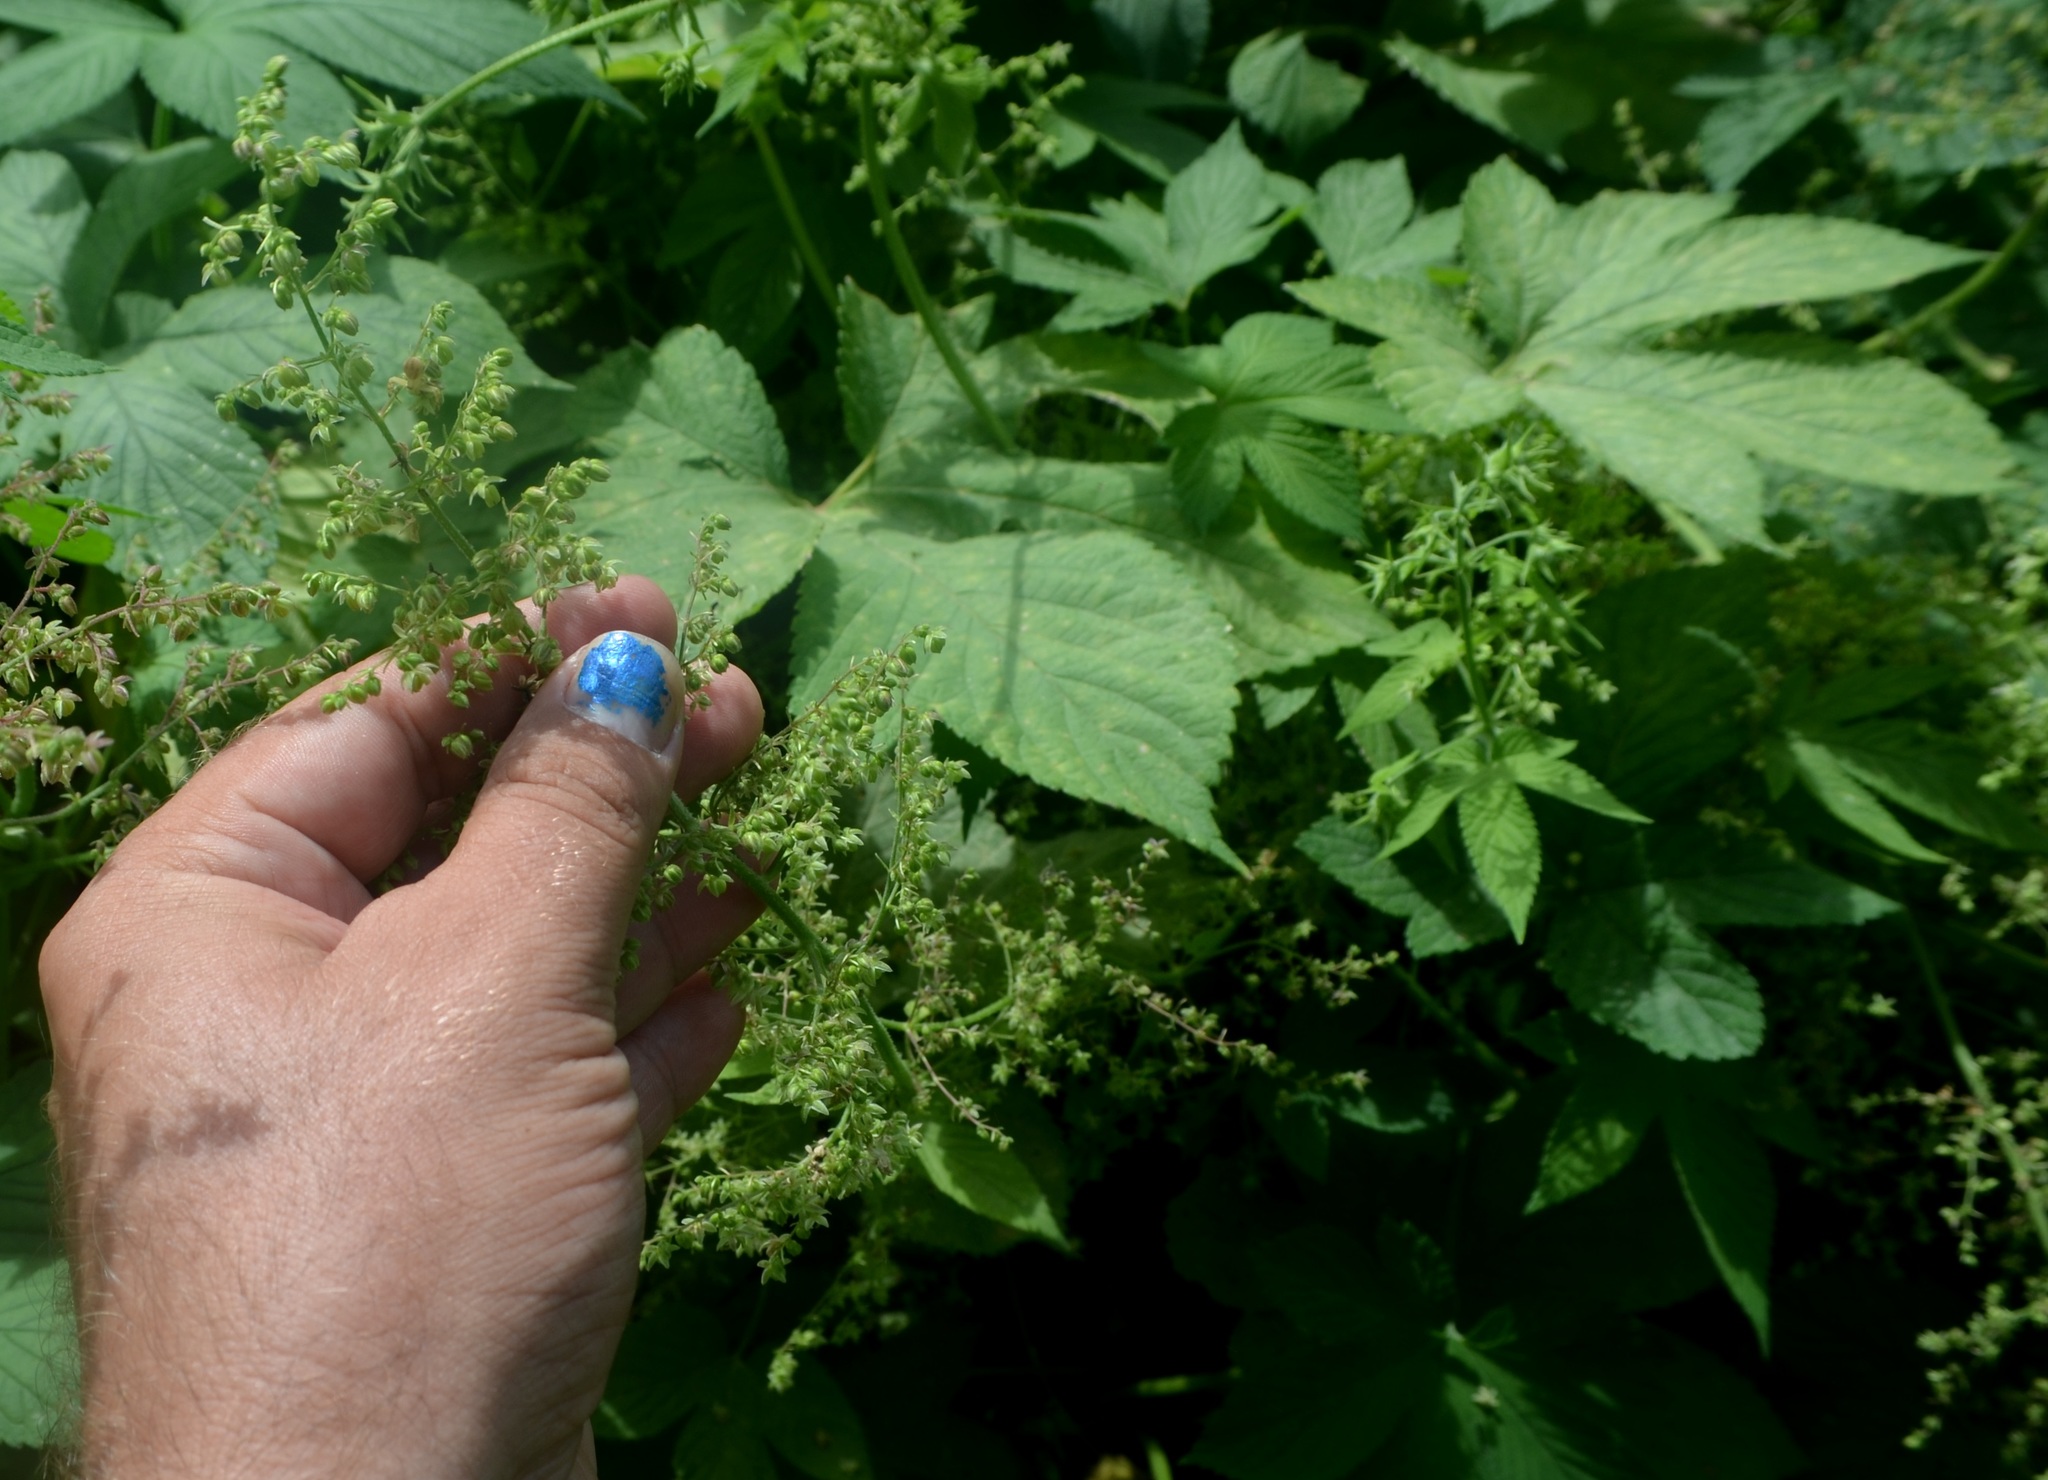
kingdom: Plantae
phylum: Tracheophyta
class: Magnoliopsida
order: Rosales
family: Cannabaceae
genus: Humulus
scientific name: Humulus scandens
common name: Japanese hop
